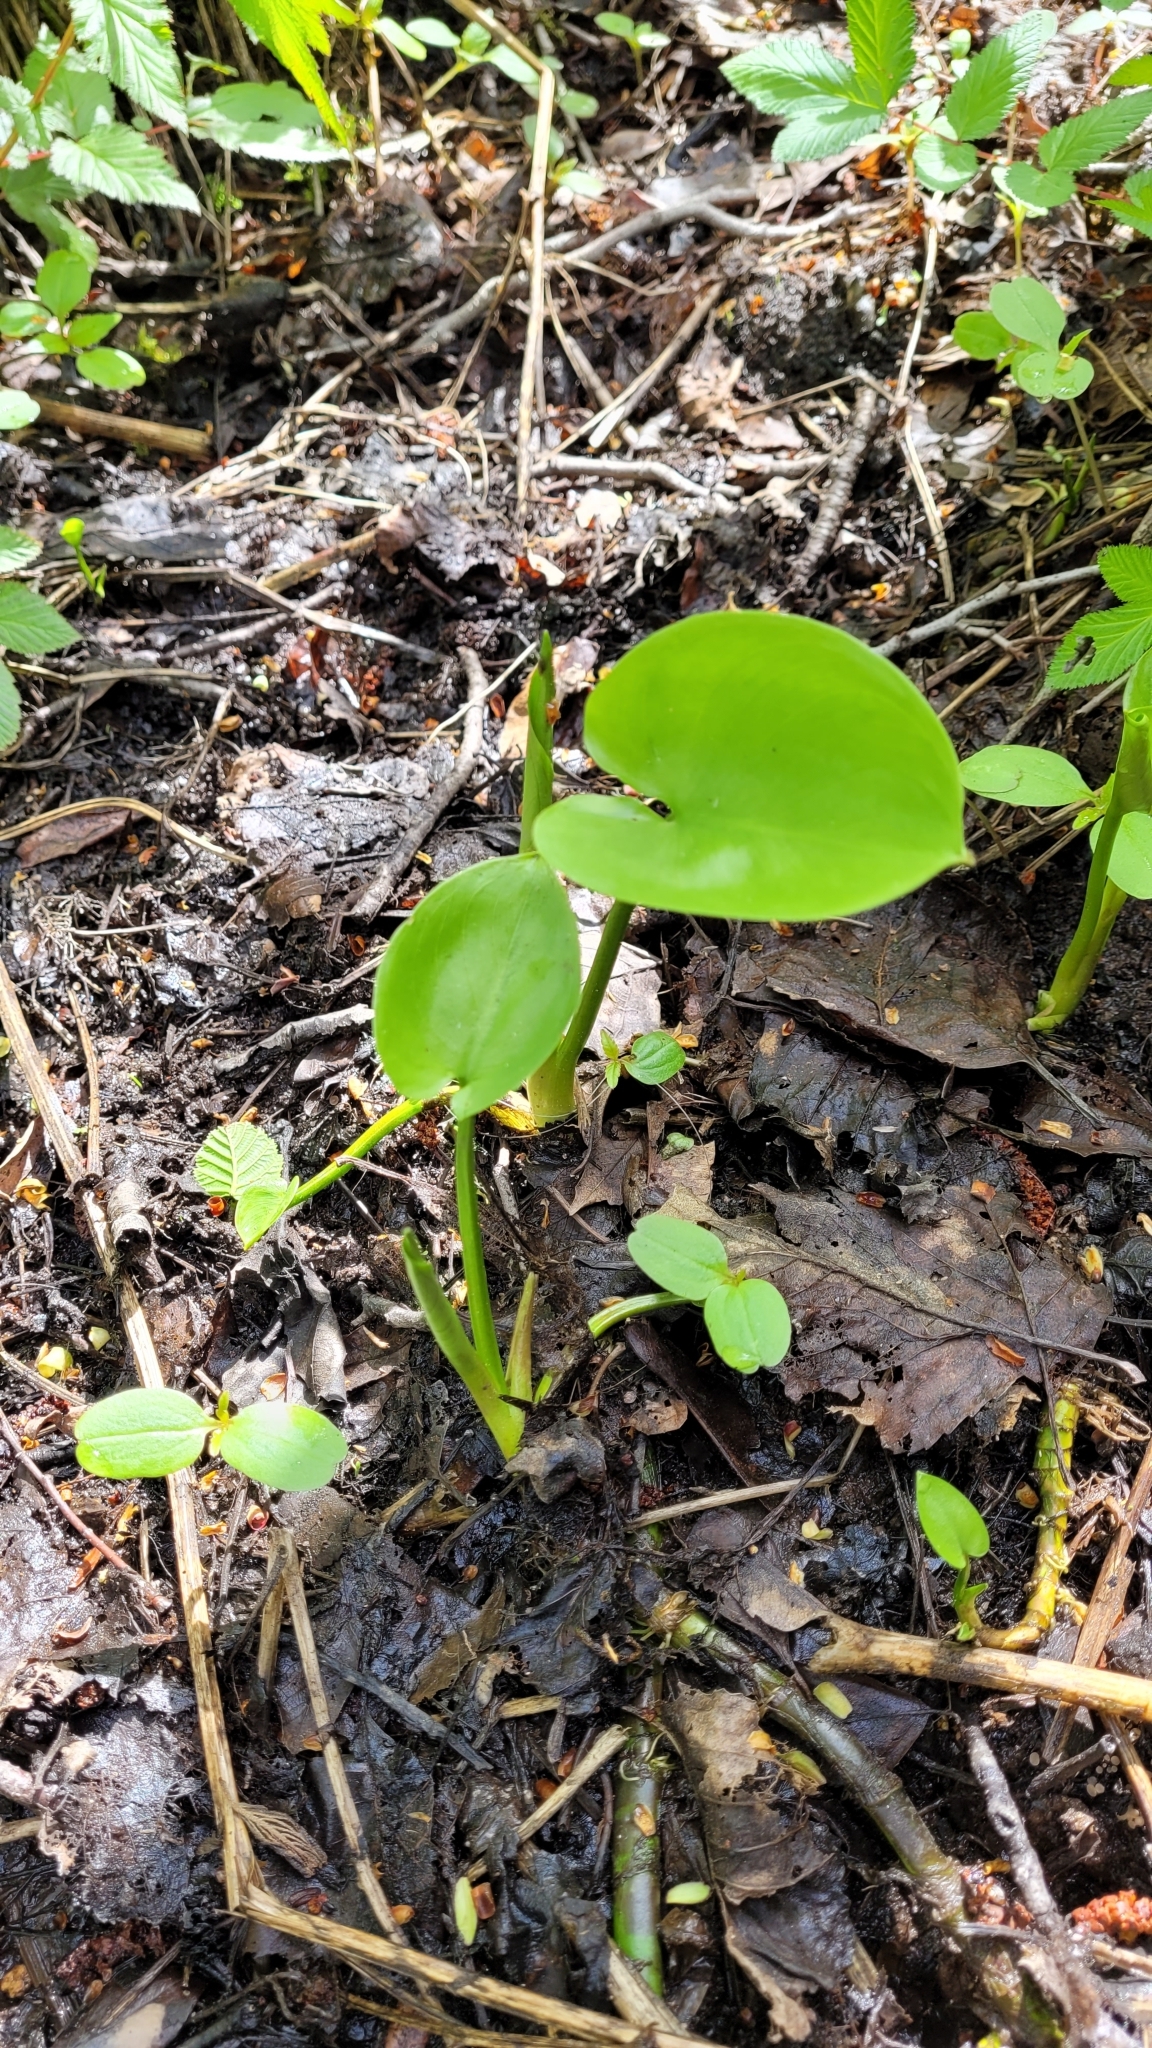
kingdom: Plantae
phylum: Tracheophyta
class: Liliopsida
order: Alismatales
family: Araceae
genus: Calla
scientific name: Calla palustris
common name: Bog arum
